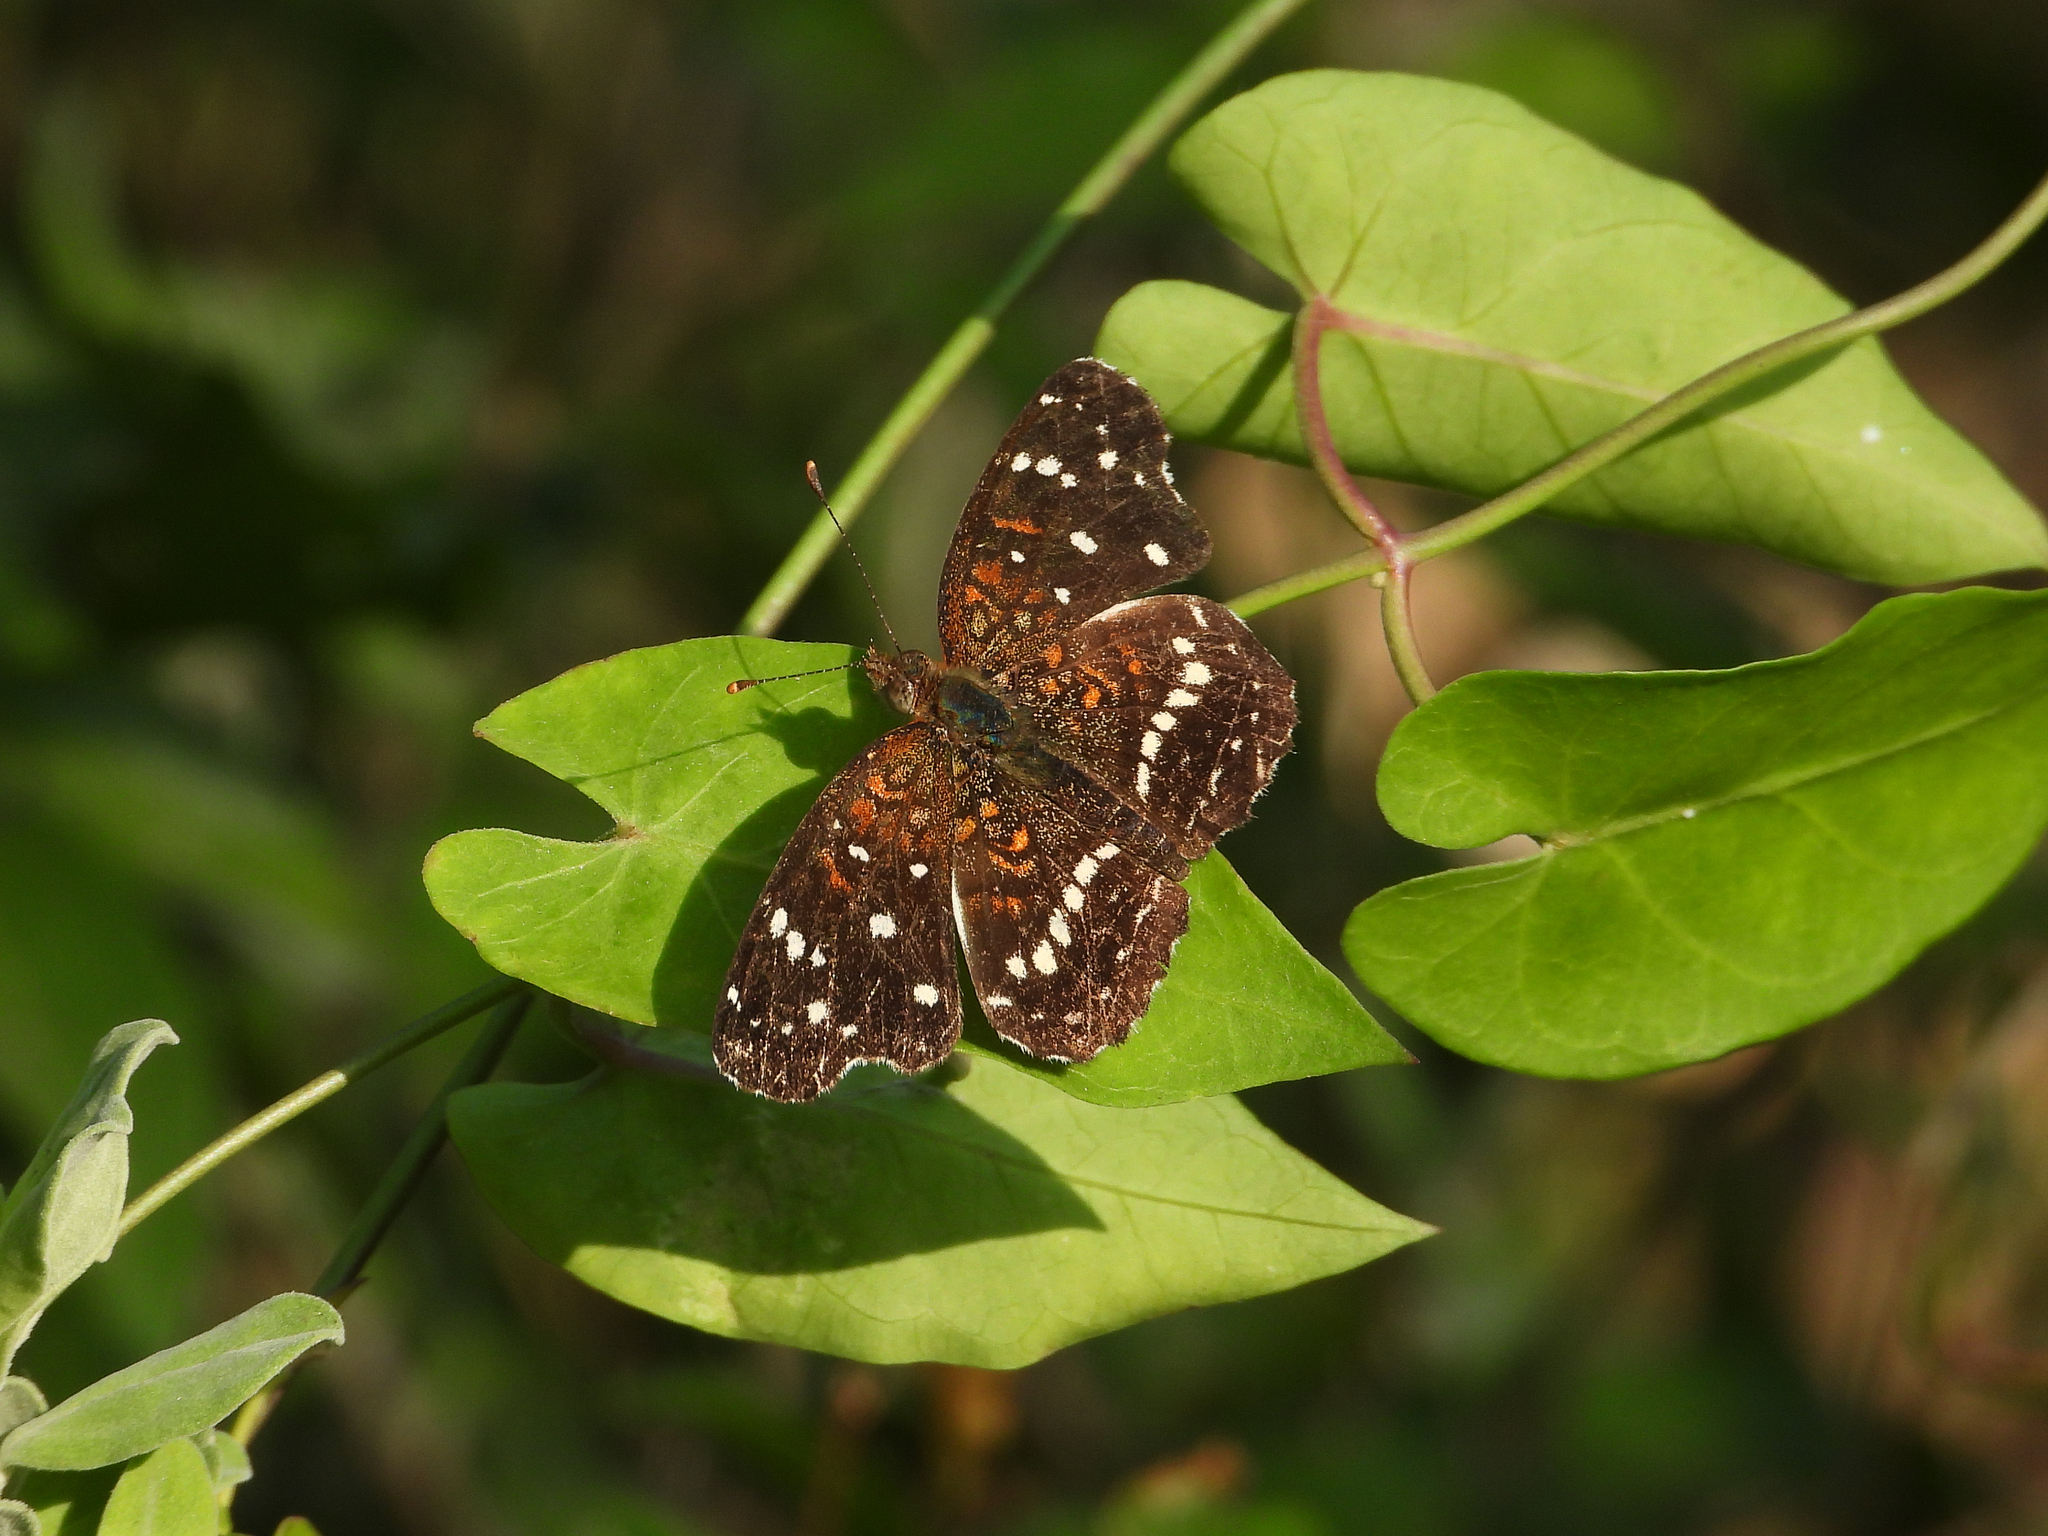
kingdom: Animalia
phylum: Arthropoda
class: Insecta
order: Lepidoptera
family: Nymphalidae
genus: Anthanassa
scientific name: Anthanassa texana
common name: Texan crescent
